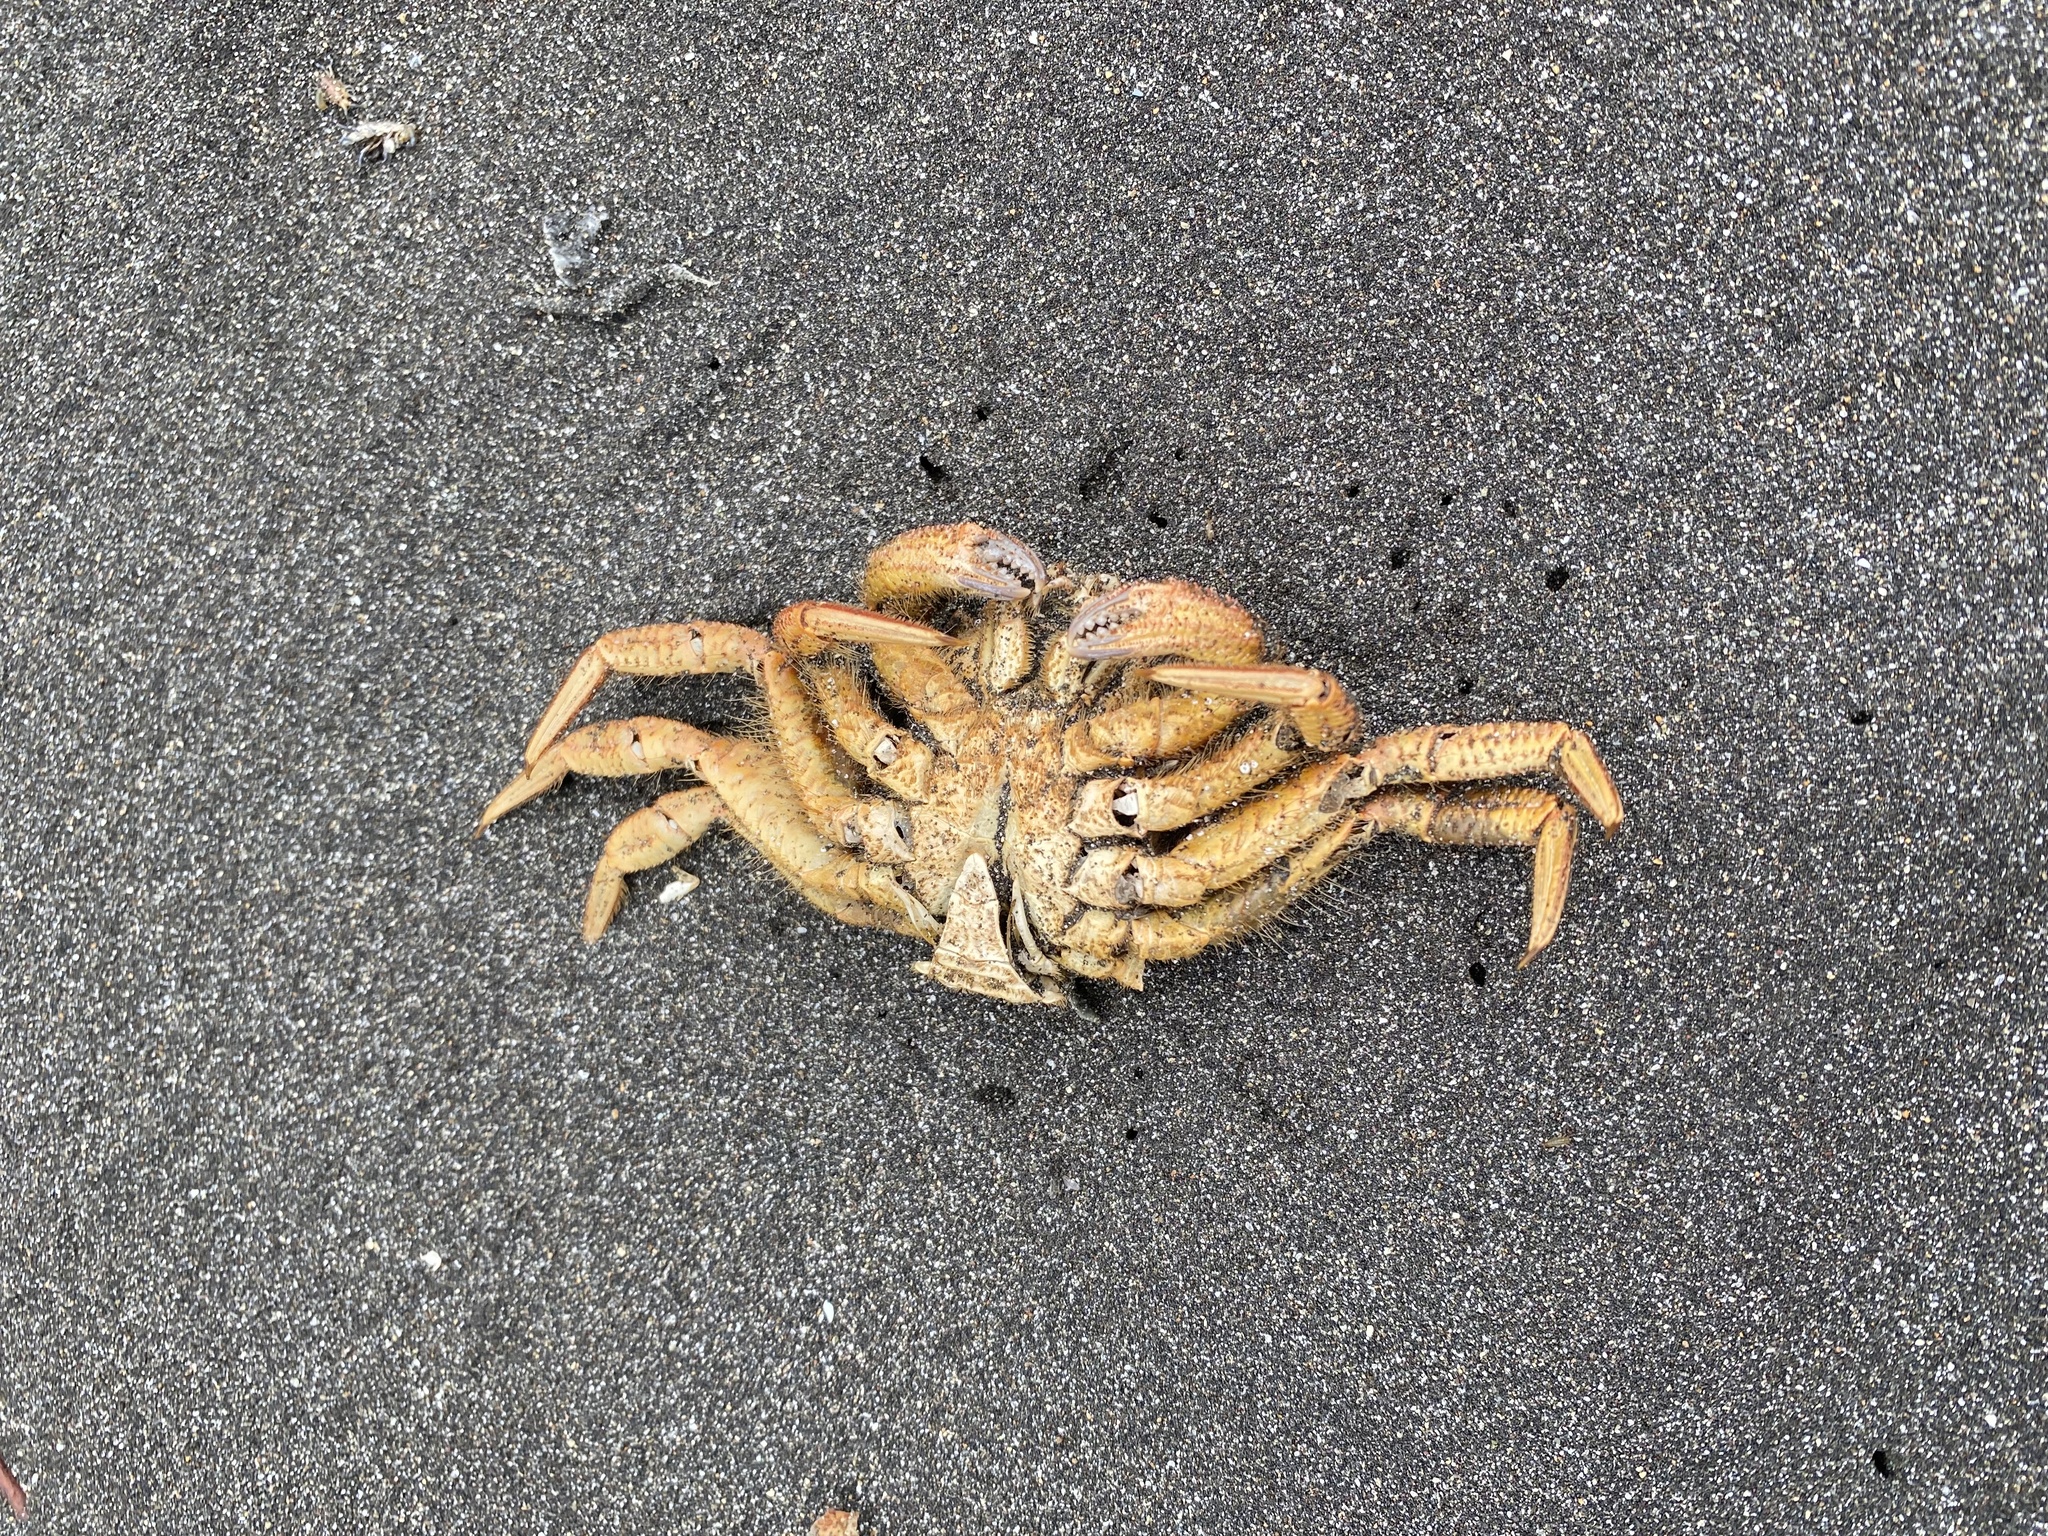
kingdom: Animalia
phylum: Arthropoda
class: Malacostraca
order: Decapoda
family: Cheiragonidae
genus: Telmessus
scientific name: Telmessus cheiragonus
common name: Helmet crab
